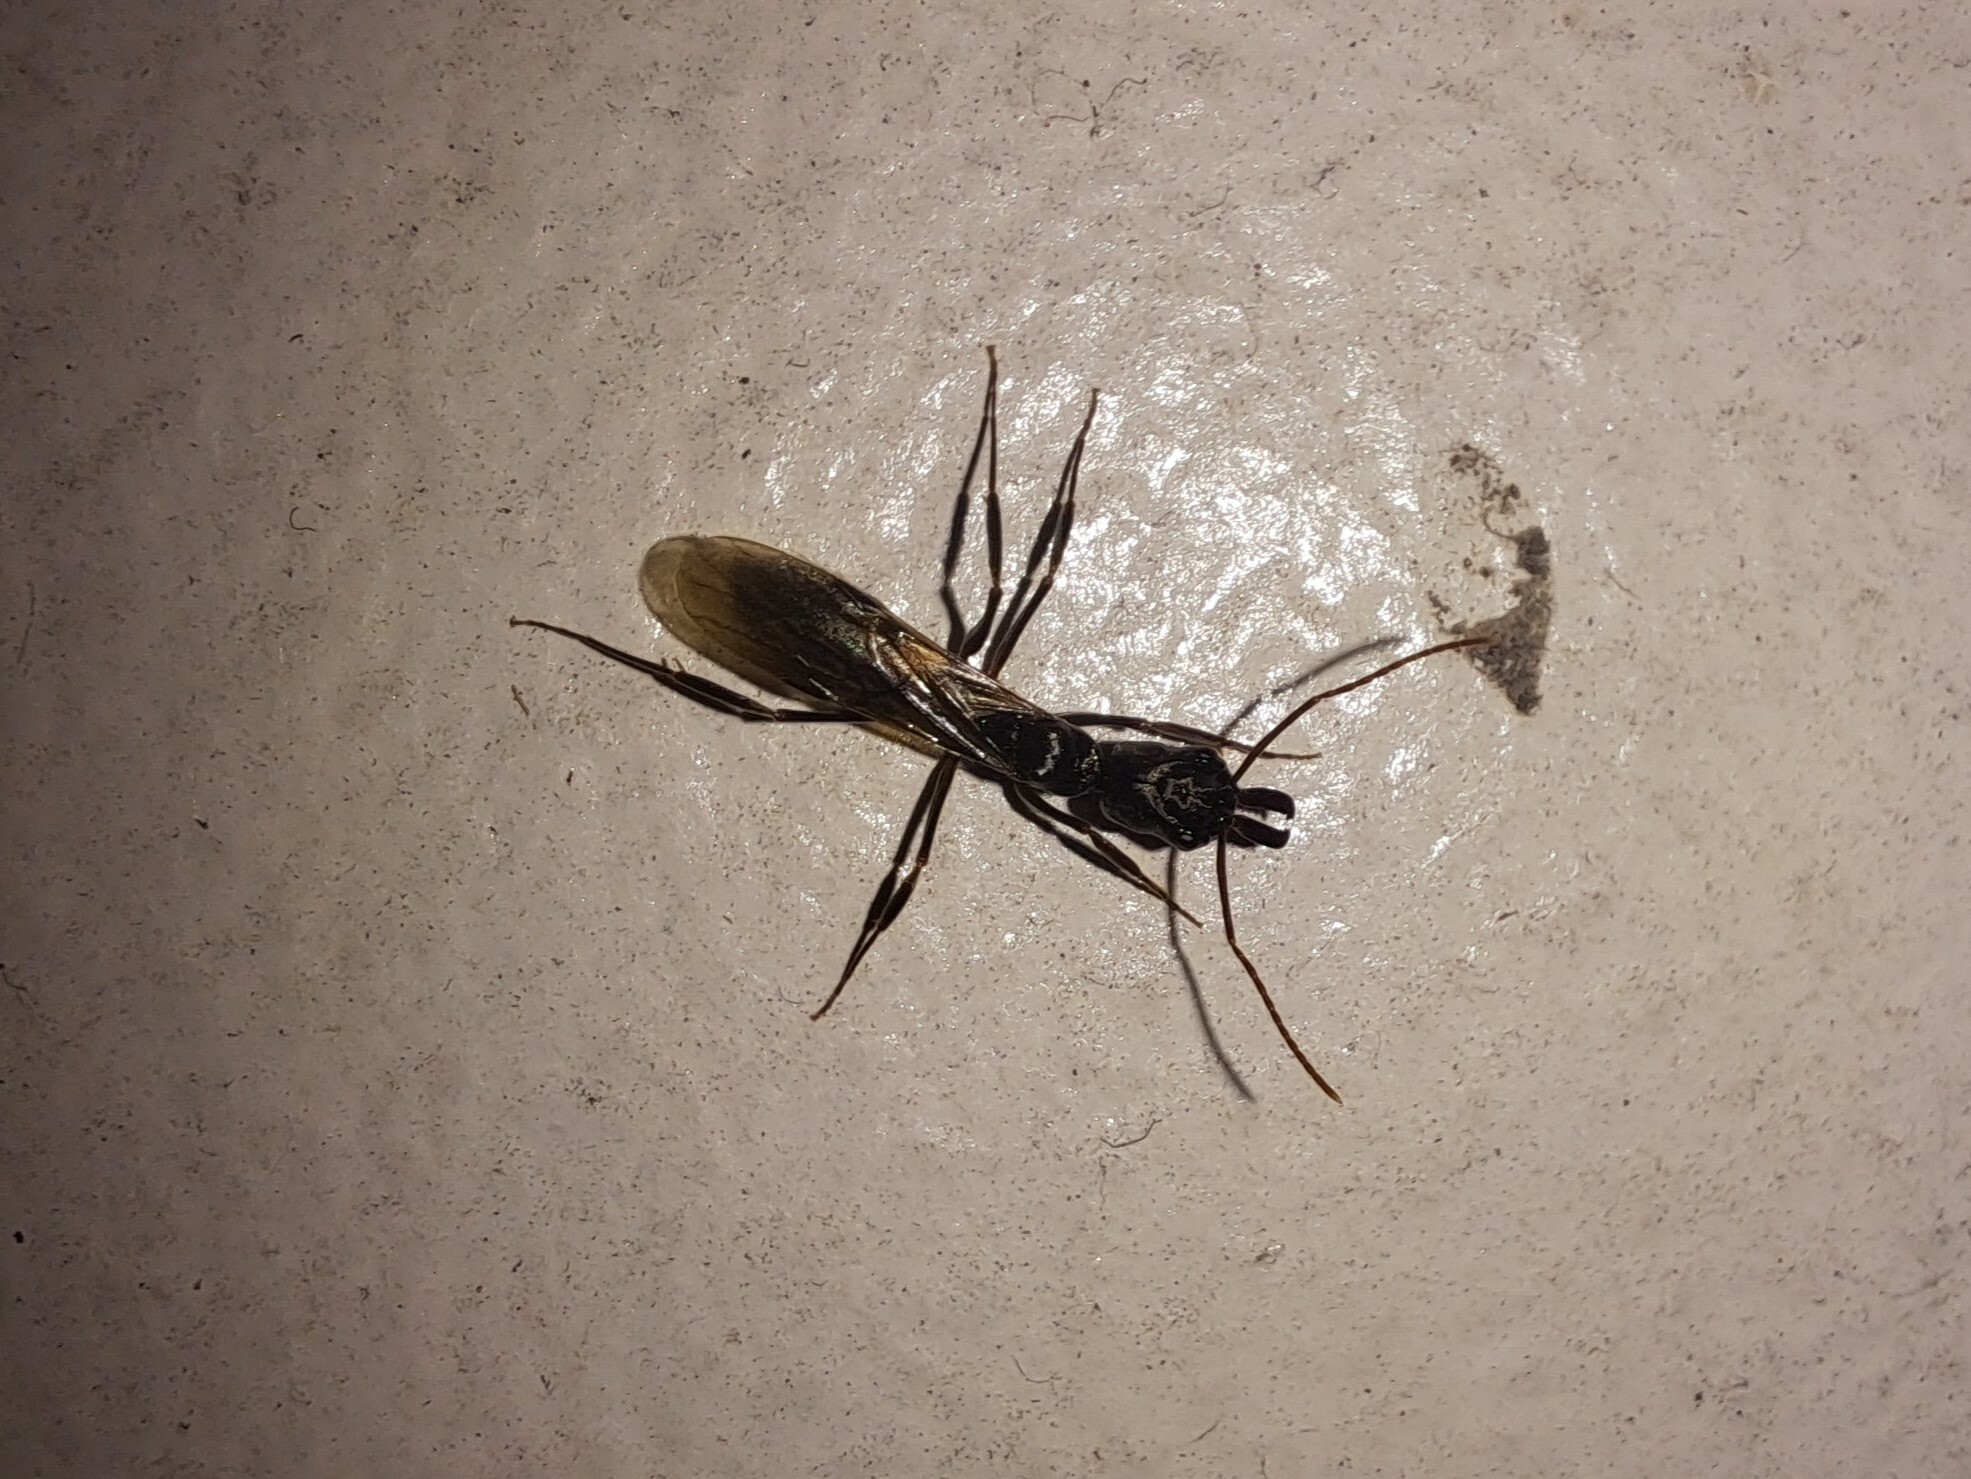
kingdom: Animalia
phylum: Arthropoda
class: Insecta
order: Hymenoptera
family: Formicidae
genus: Odontomachus
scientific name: Odontomachus bauri
